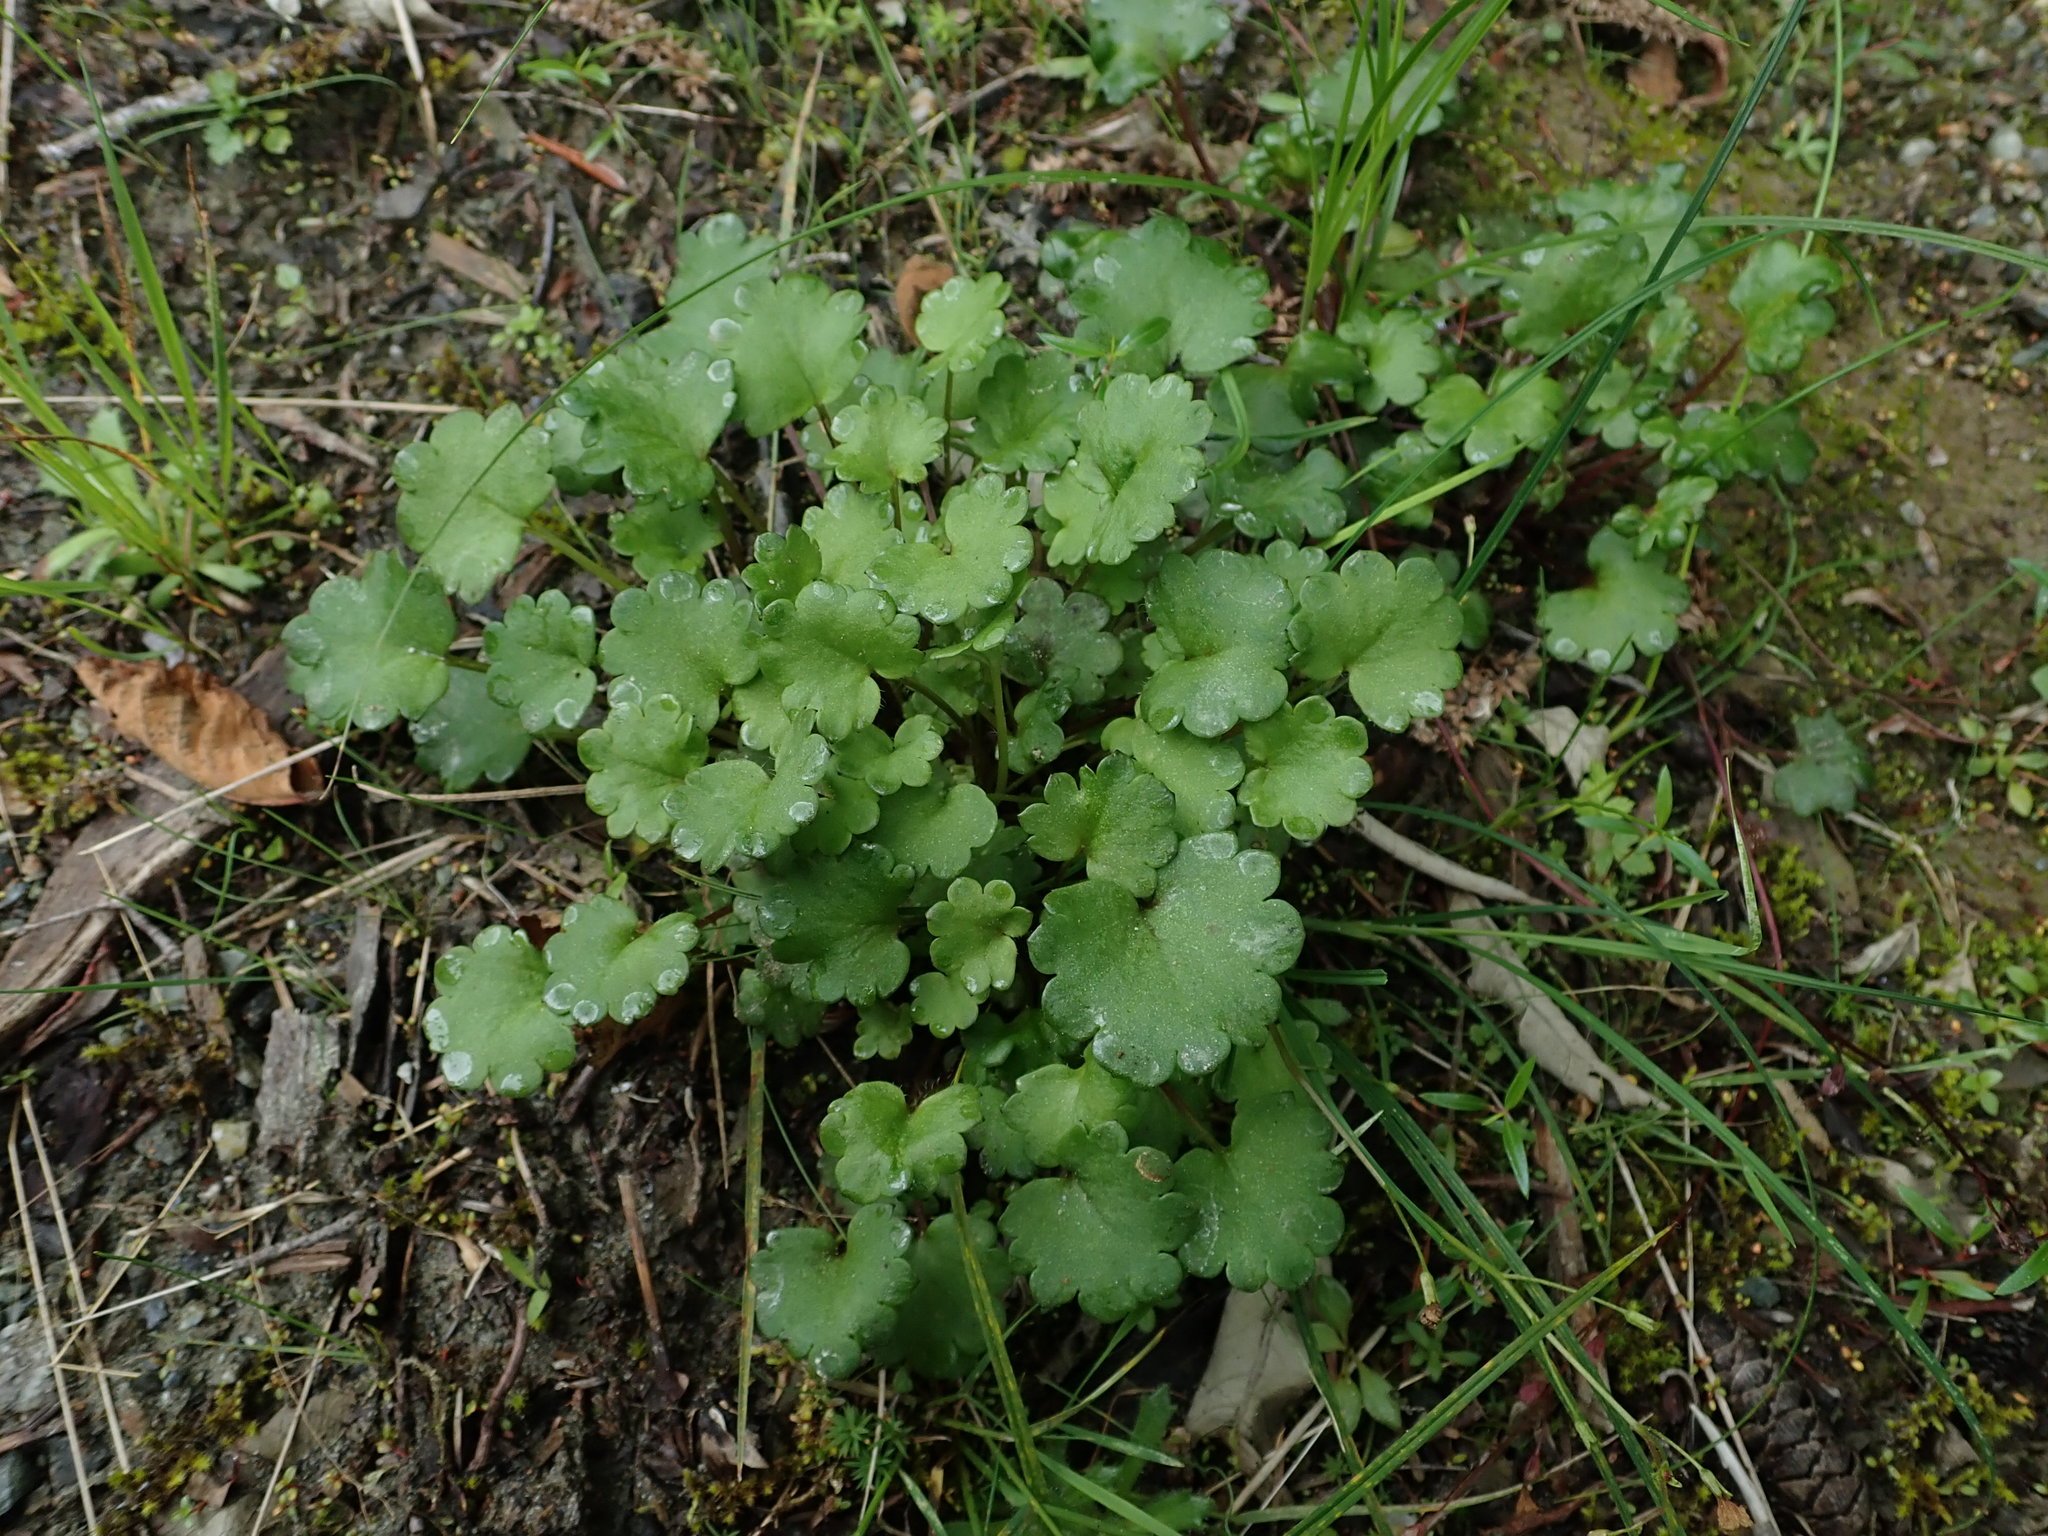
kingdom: Plantae
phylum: Tracheophyta
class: Magnoliopsida
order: Boraginales
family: Hydrophyllaceae
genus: Romanzoffia
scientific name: Romanzoffia sitchensis
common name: Sitka mistmaid
